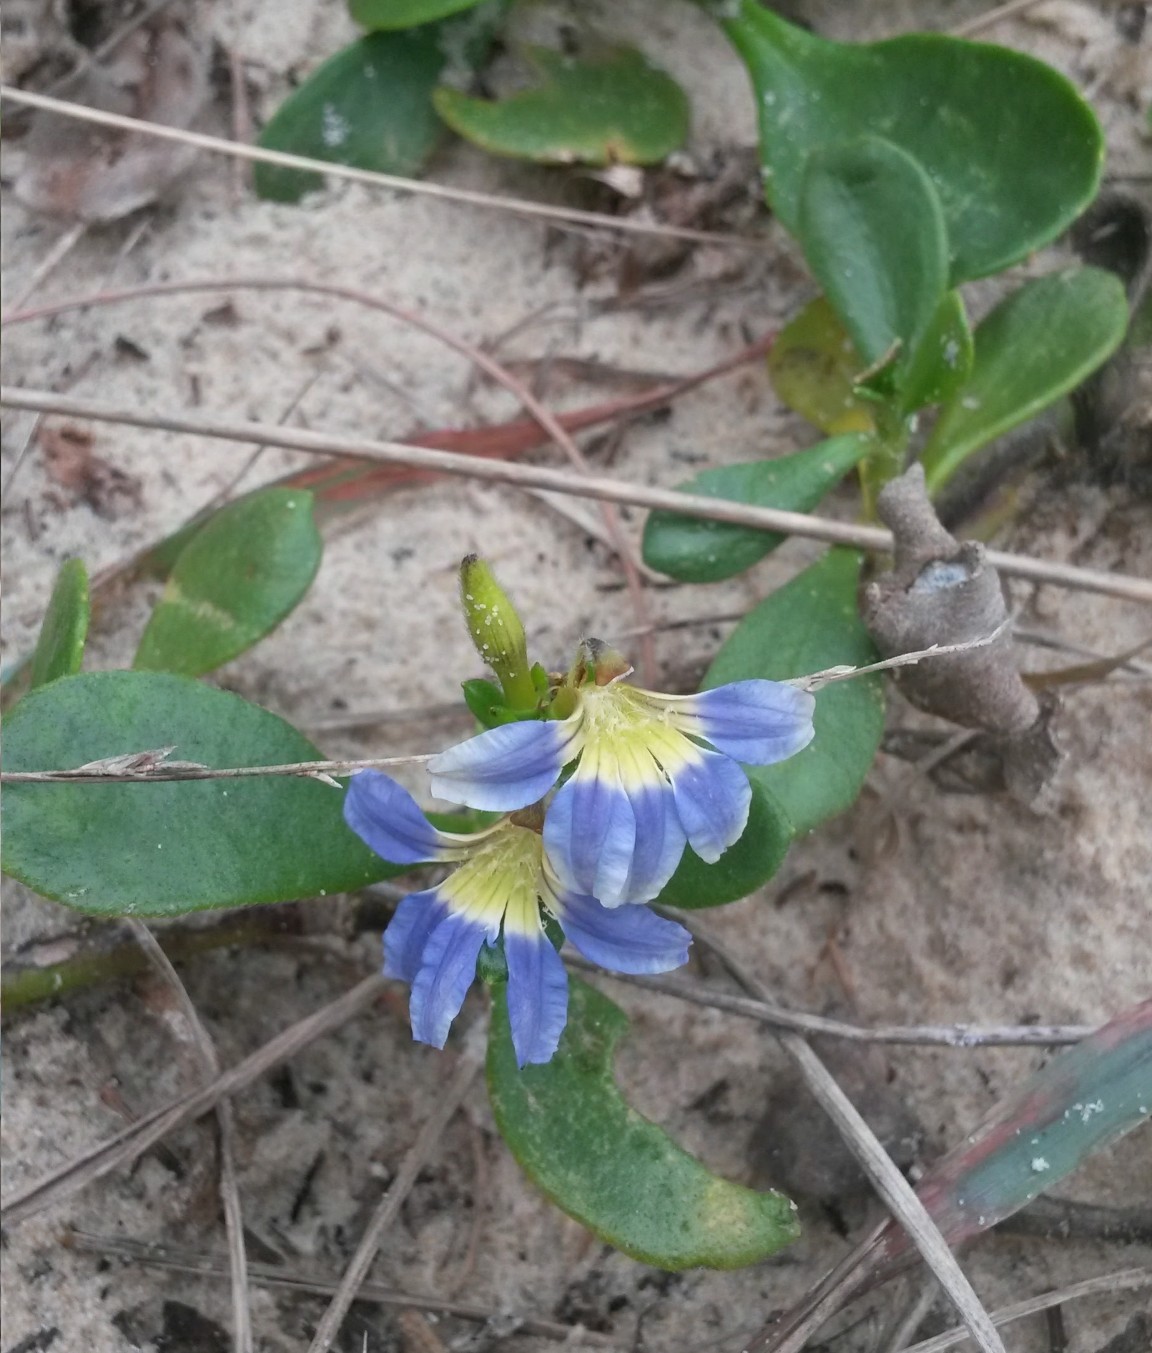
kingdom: Plantae
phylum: Tracheophyta
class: Magnoliopsida
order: Asterales
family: Goodeniaceae
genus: Scaevola
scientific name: Scaevola calendulacea
